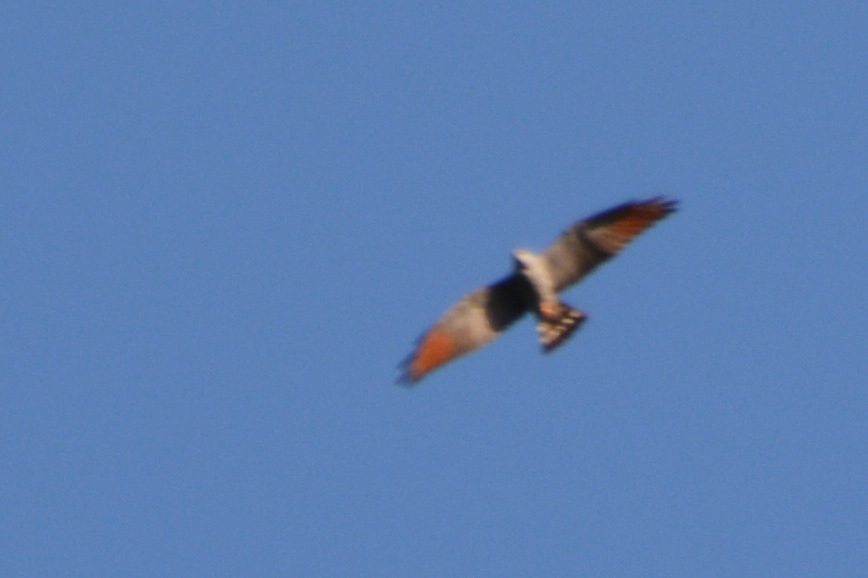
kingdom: Animalia
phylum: Chordata
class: Aves
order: Accipitriformes
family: Accipitridae
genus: Ictinia
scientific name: Ictinia plumbea
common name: Plumbeous kite
